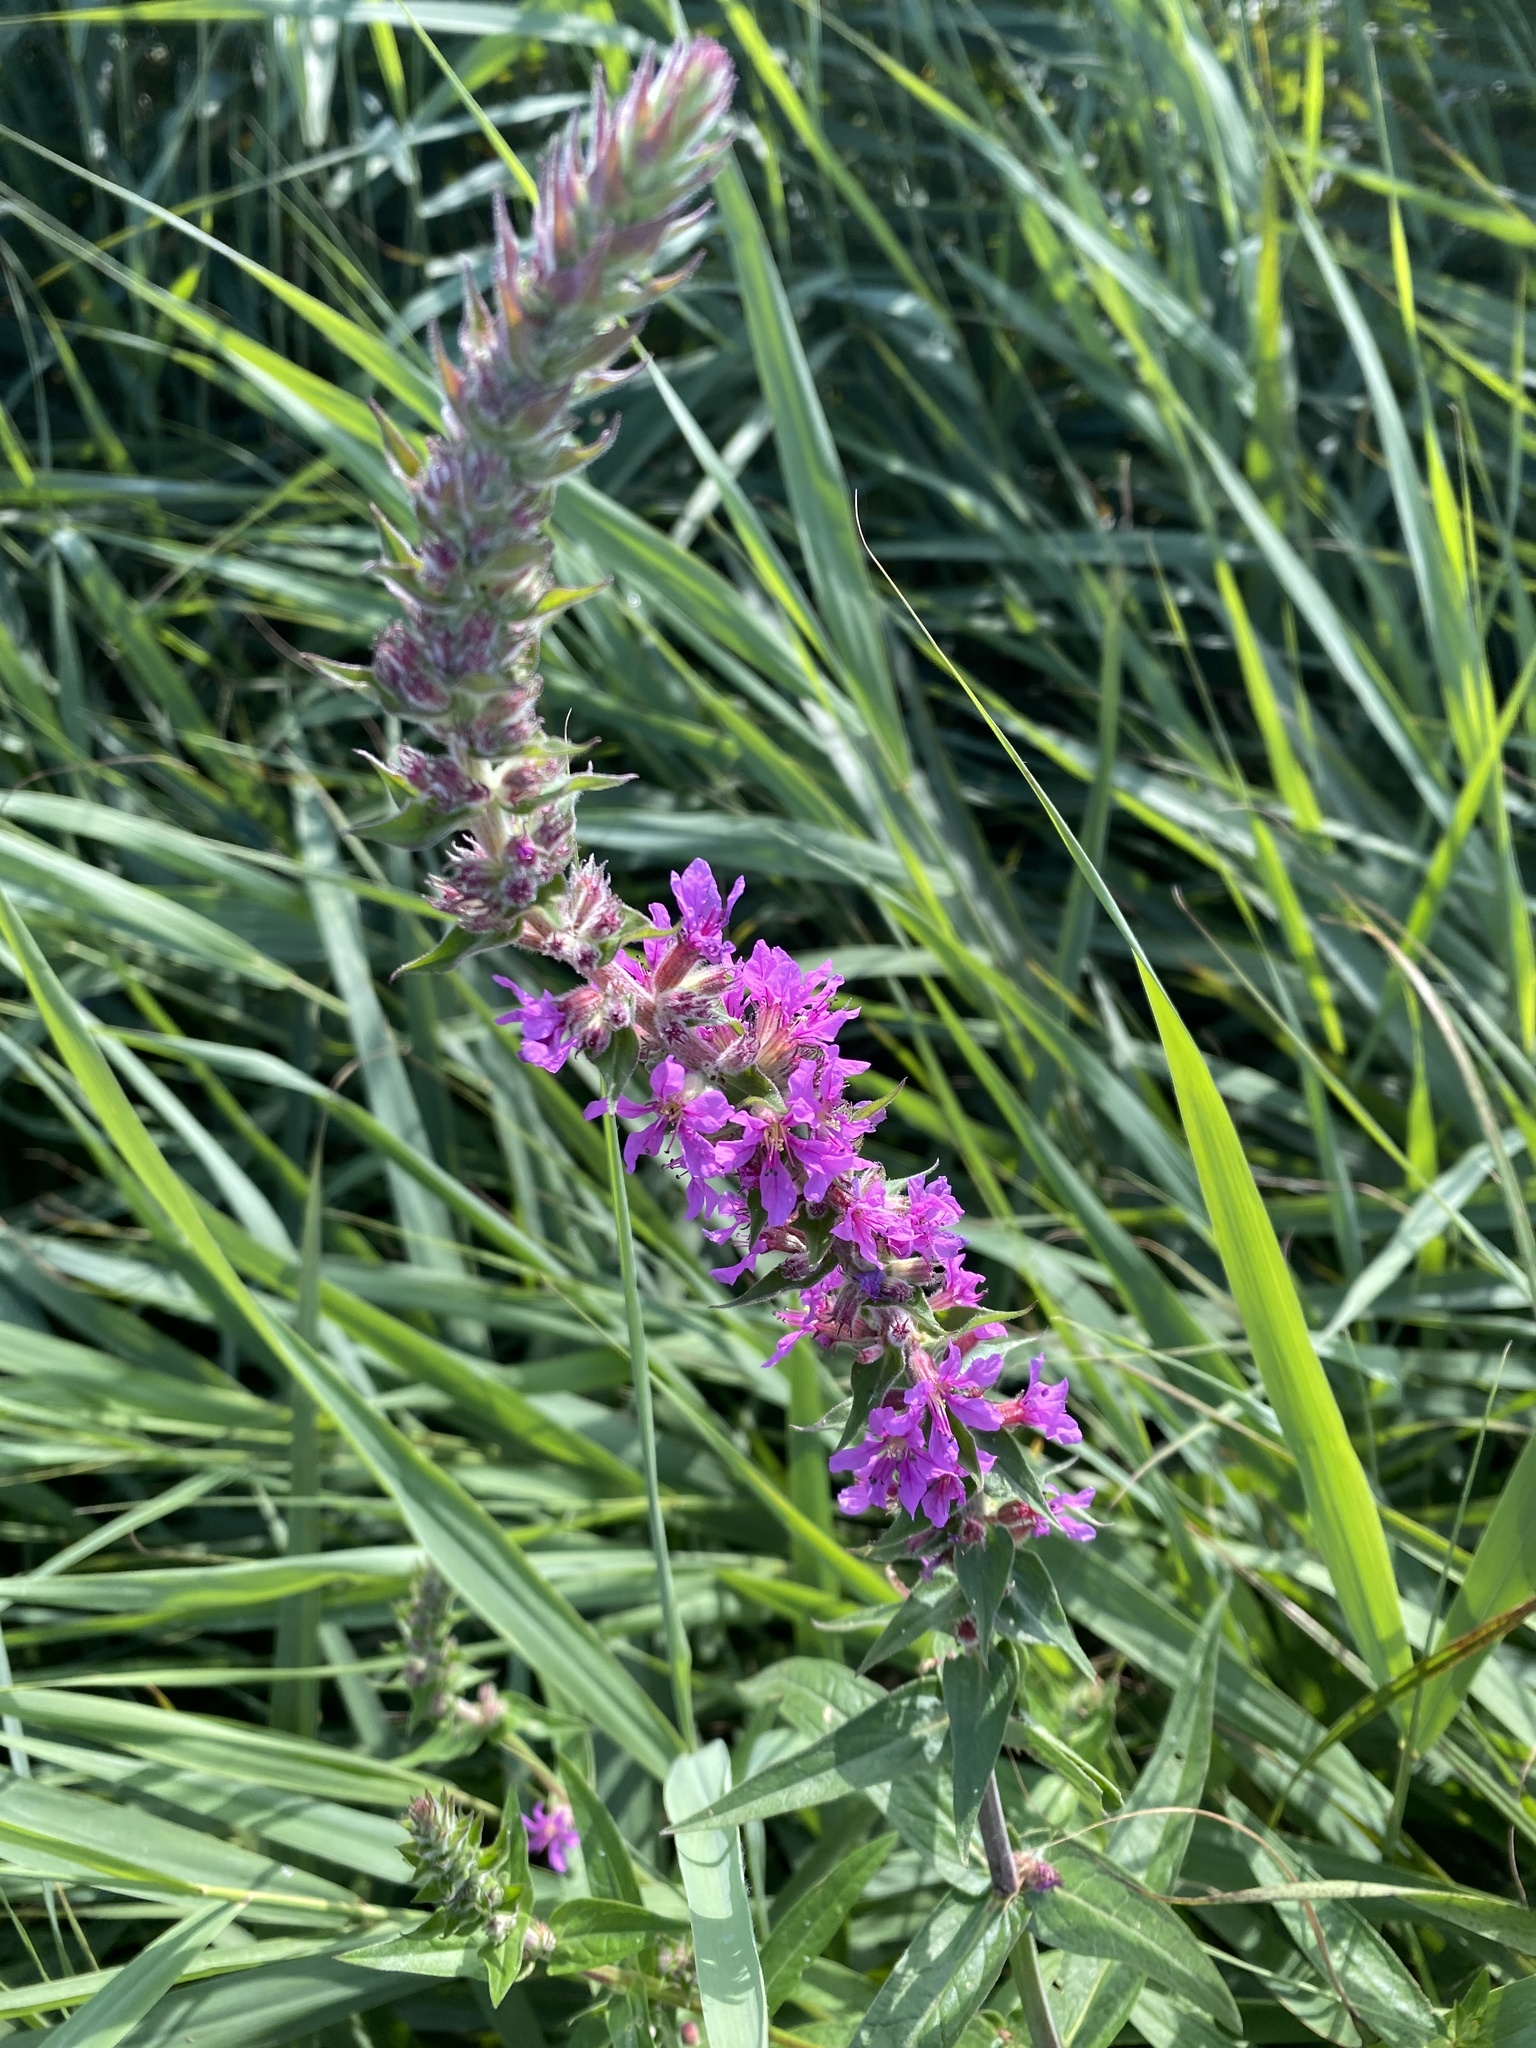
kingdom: Plantae
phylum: Tracheophyta
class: Magnoliopsida
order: Myrtales
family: Lythraceae
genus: Lythrum
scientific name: Lythrum salicaria
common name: Purple loosestrife
